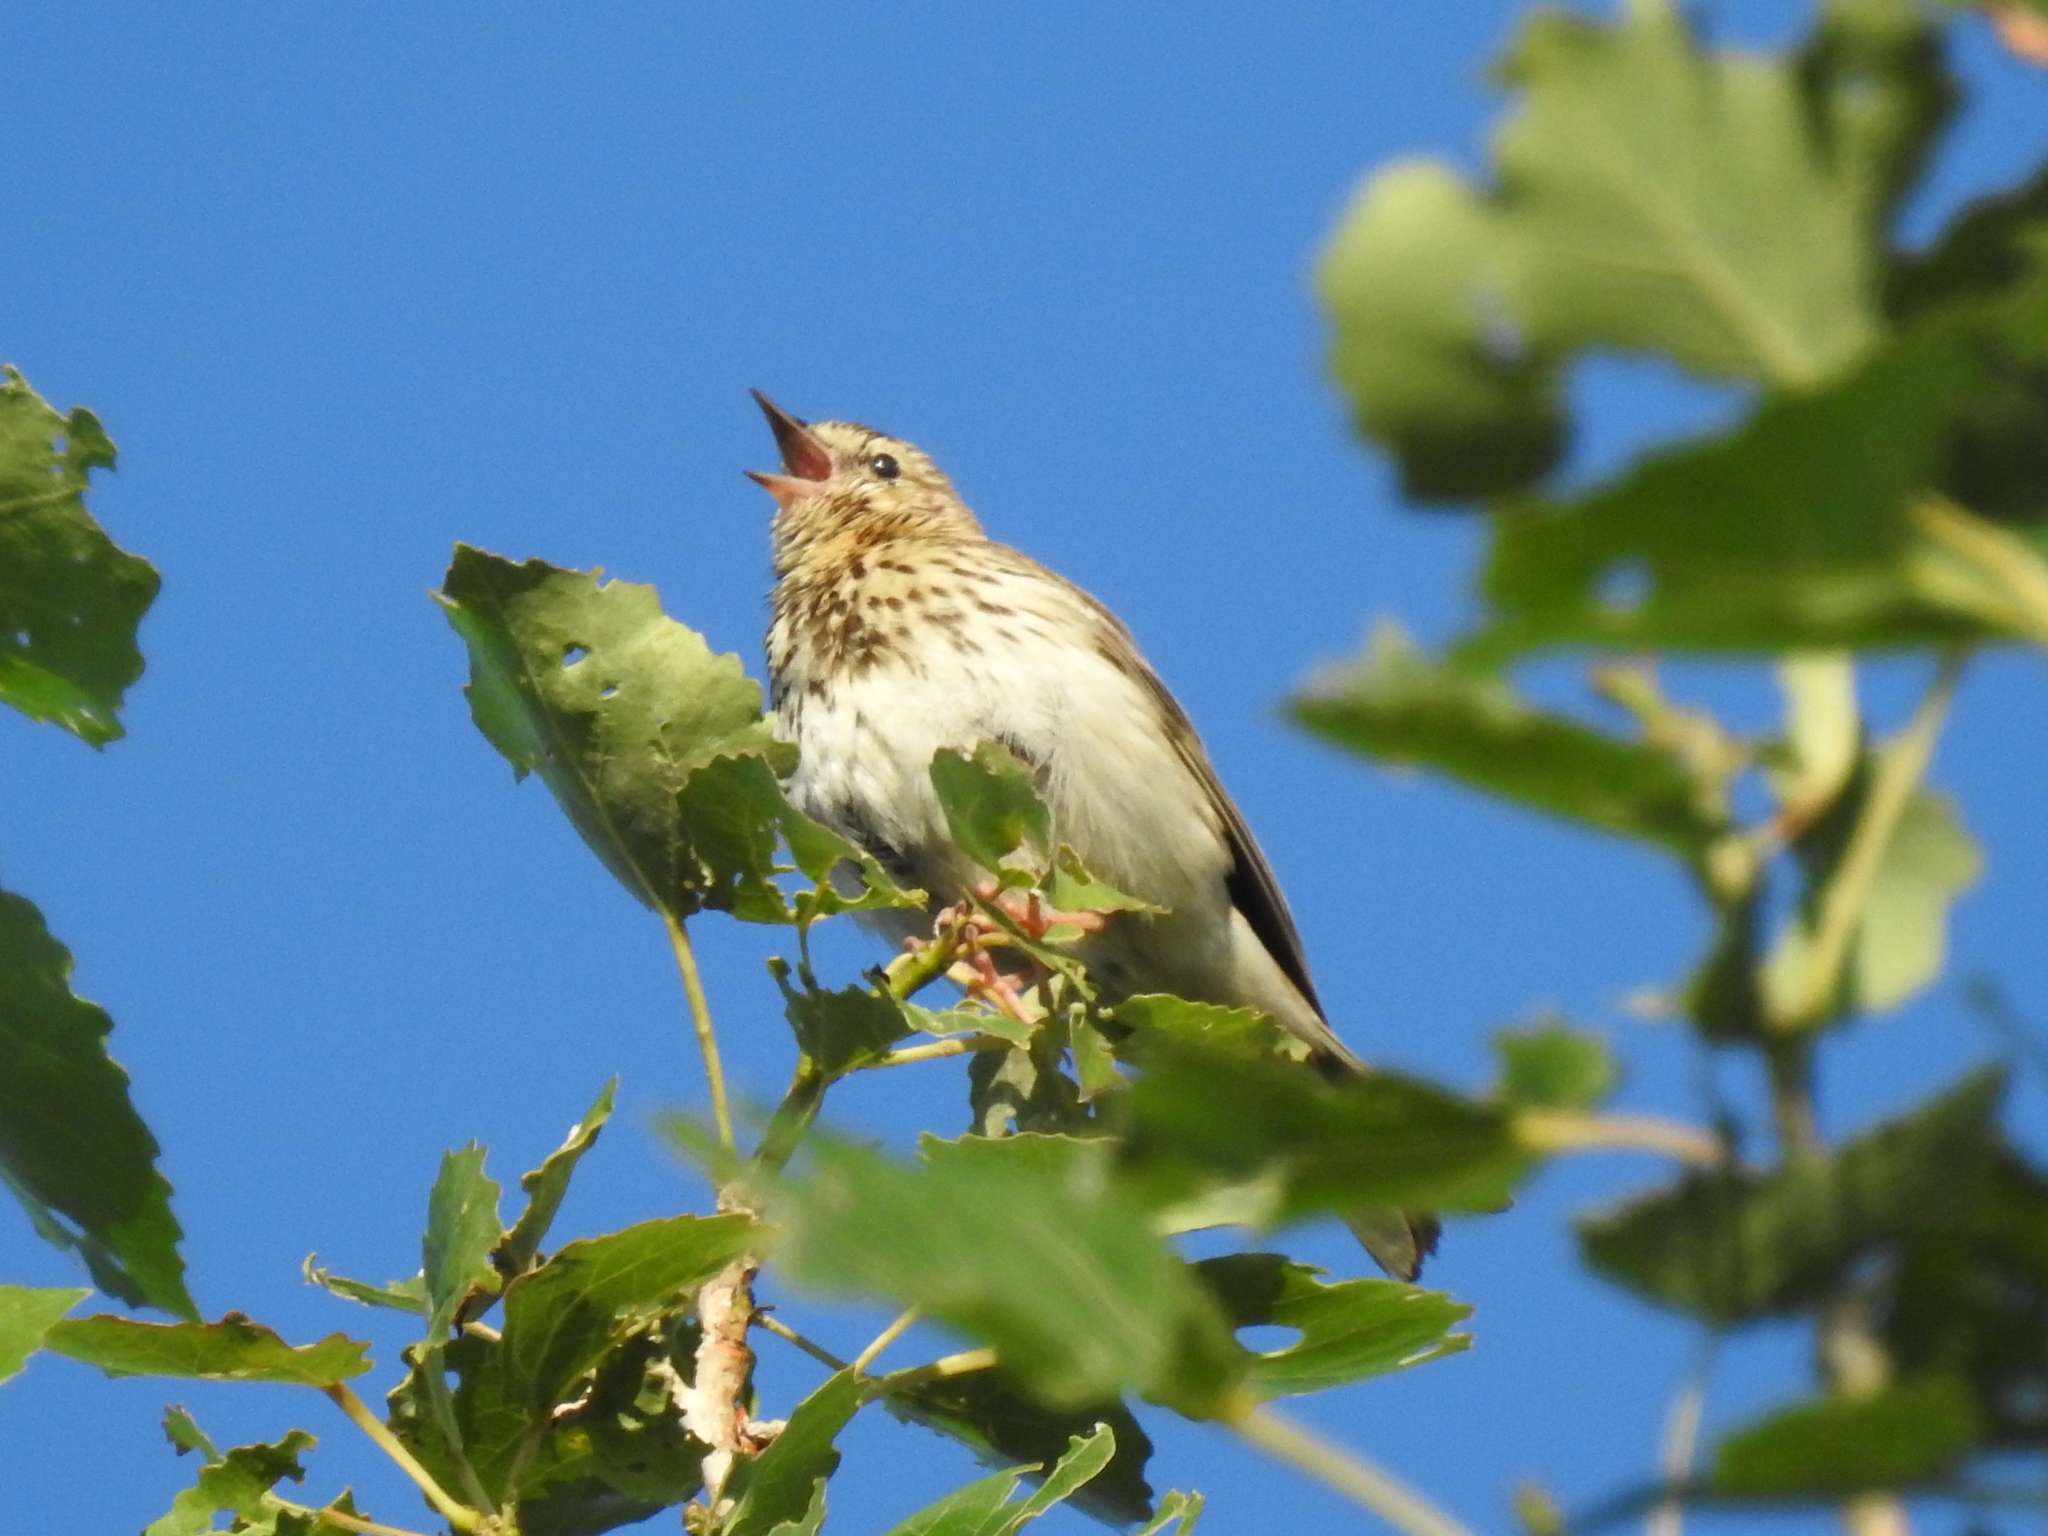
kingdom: Animalia
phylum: Chordata
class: Aves
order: Passeriformes
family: Motacillidae
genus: Anthus
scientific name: Anthus trivialis
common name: Tree pipit
